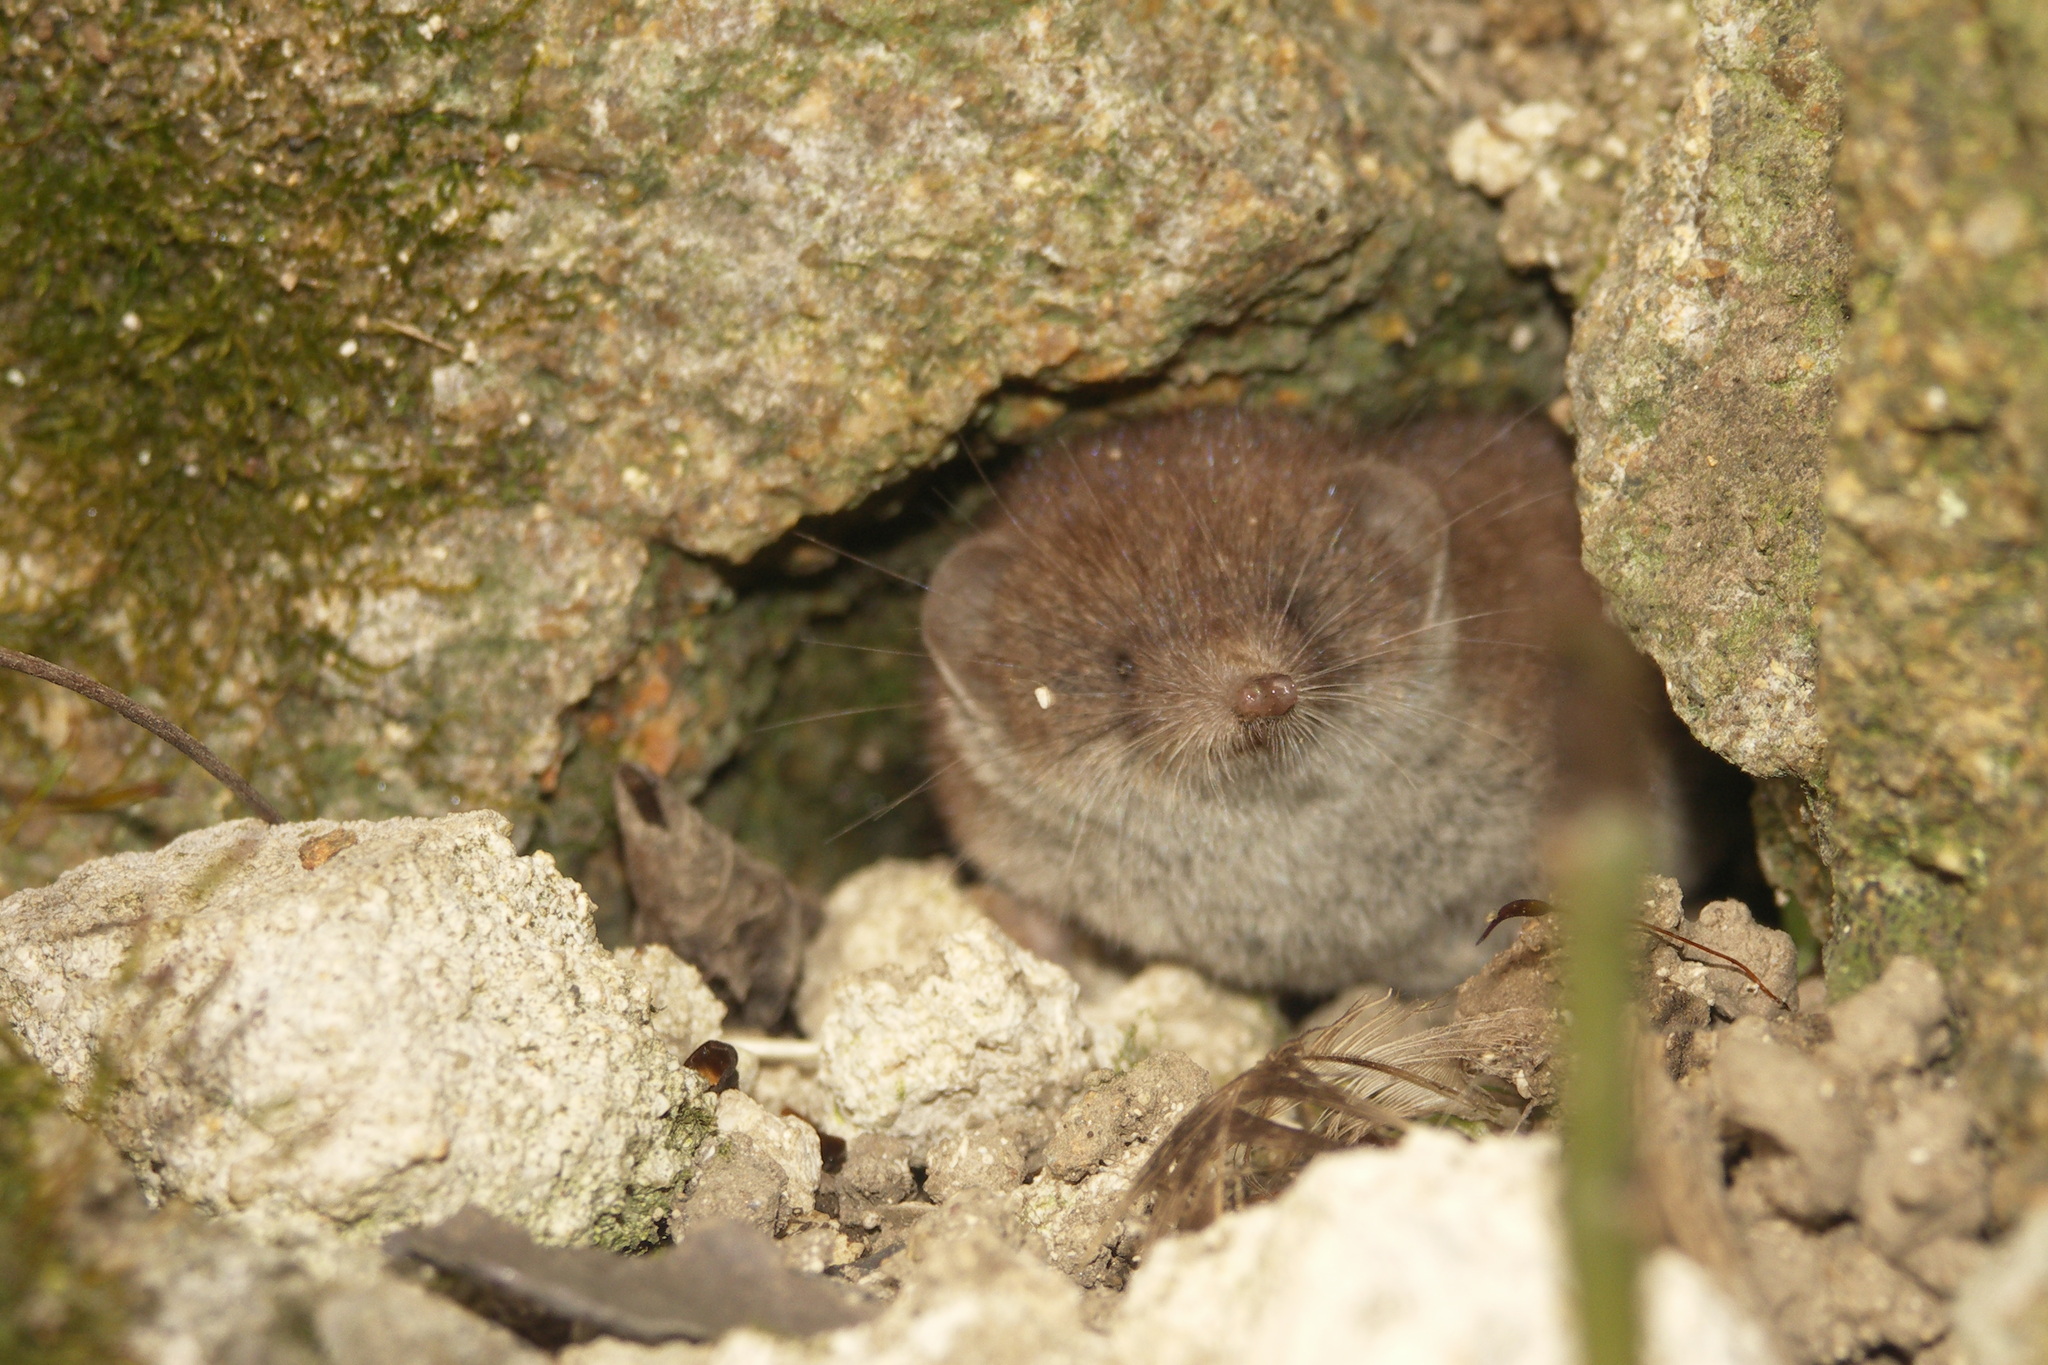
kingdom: Animalia
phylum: Chordata
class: Mammalia
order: Soricomorpha
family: Soricidae
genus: Crocidura
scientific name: Crocidura russula
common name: Greater white-toothed shrew
